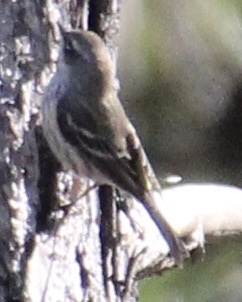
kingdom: Animalia
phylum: Chordata
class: Aves
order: Passeriformes
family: Parulidae
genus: Setophaga
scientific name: Setophaga coronata
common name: Myrtle warbler
